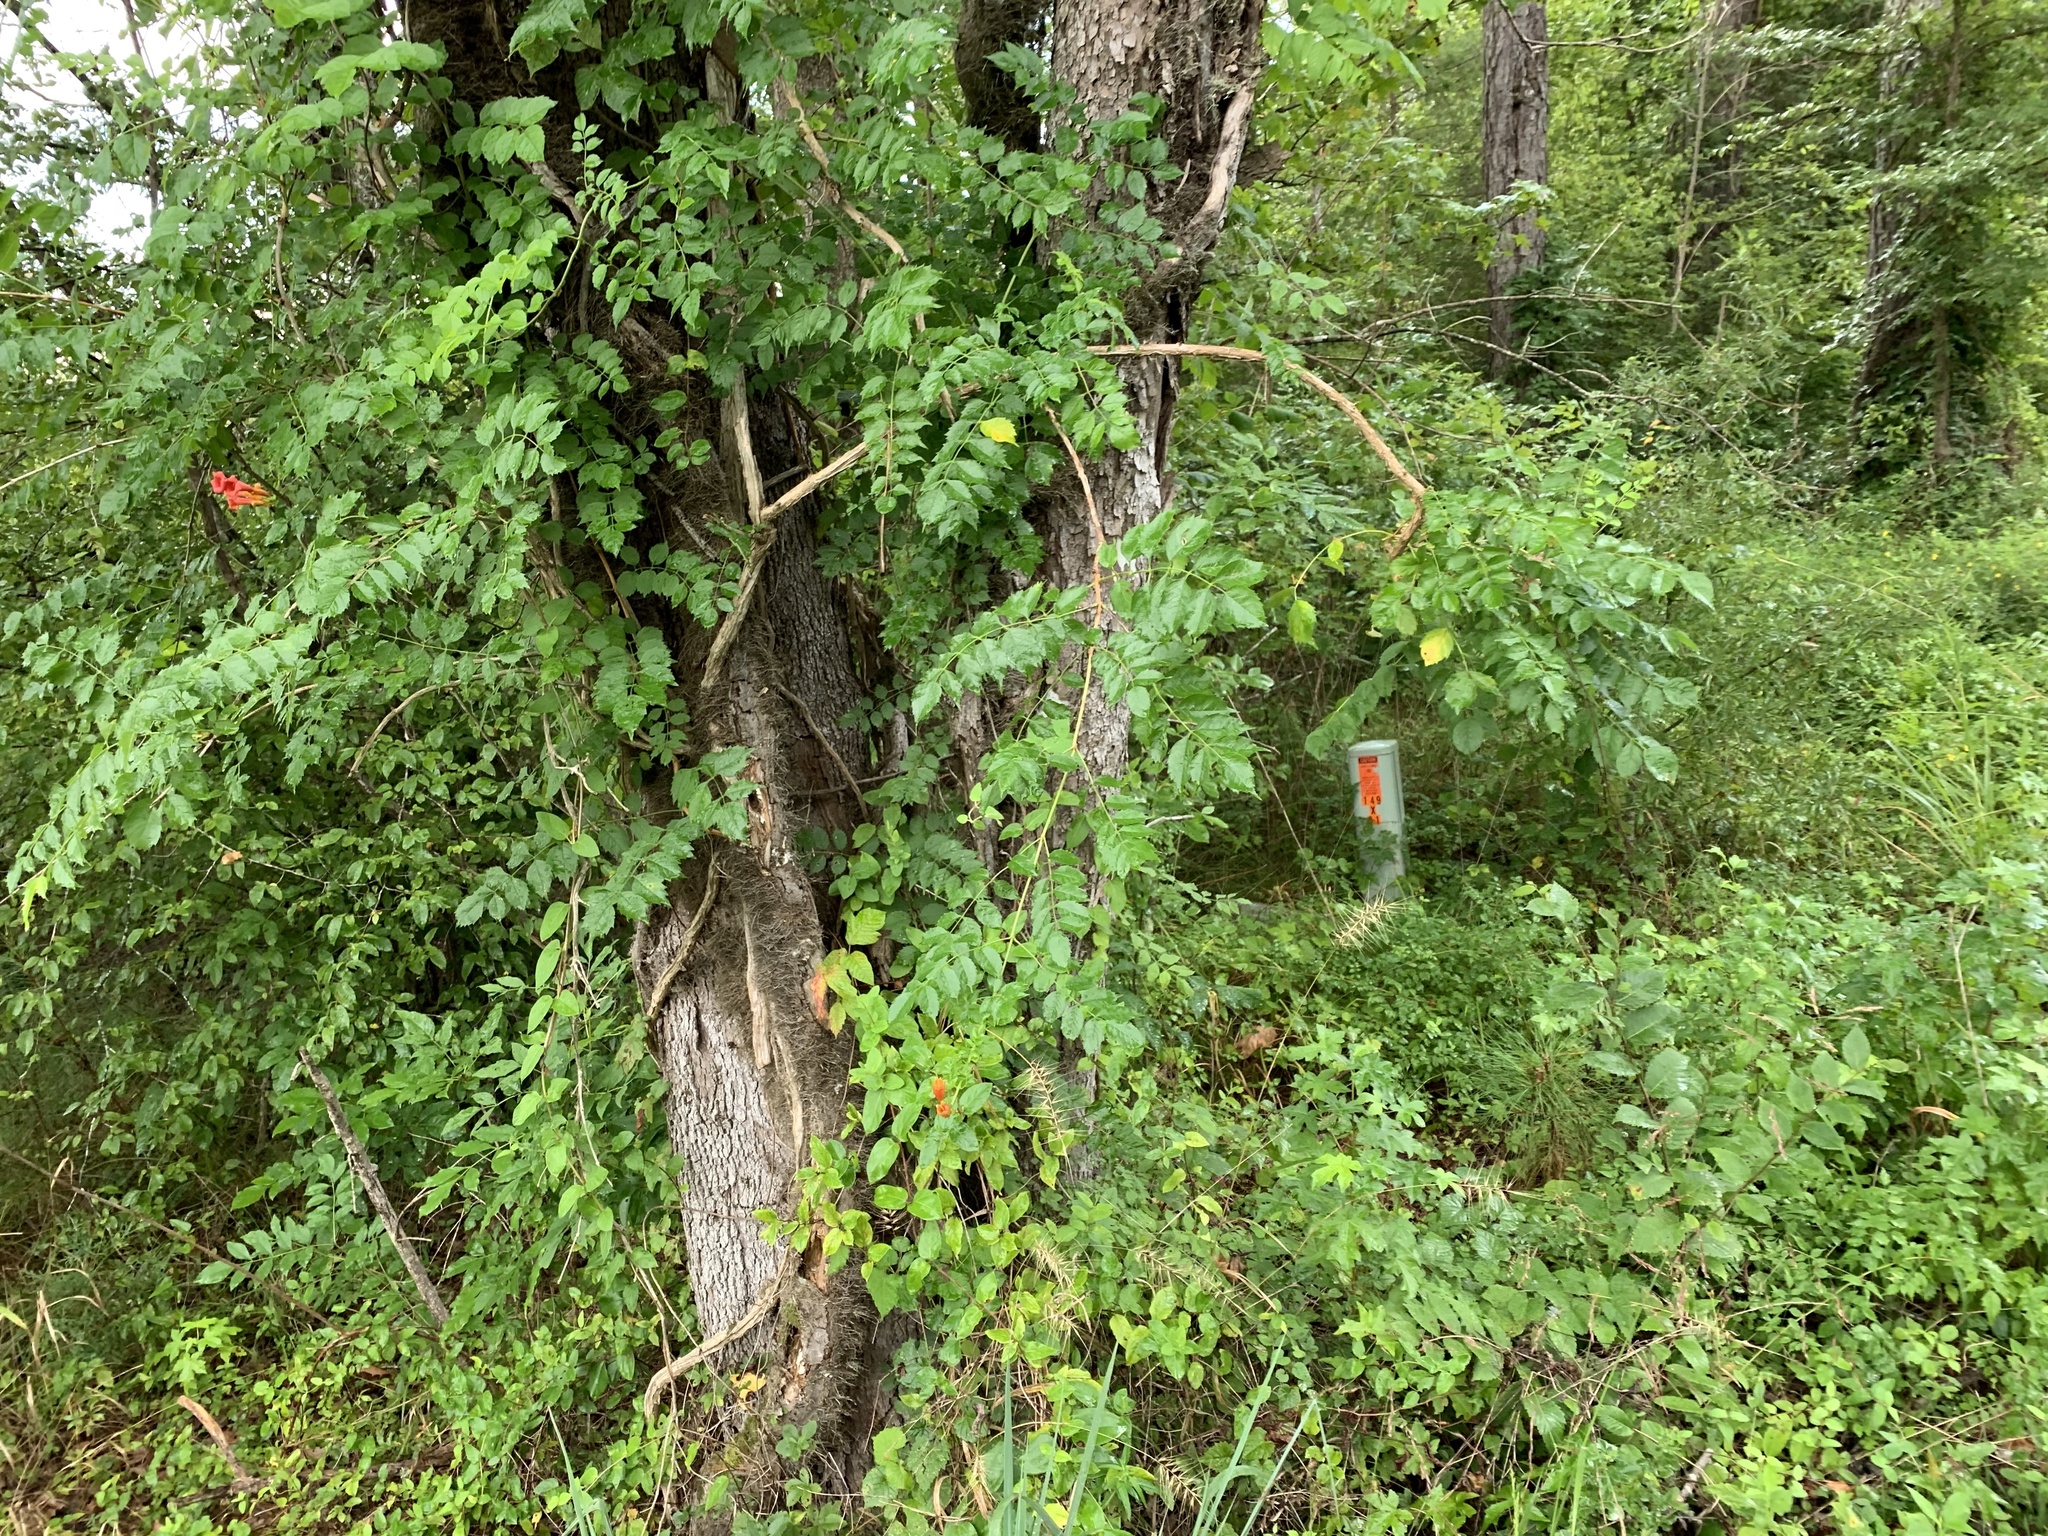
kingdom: Plantae
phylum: Tracheophyta
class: Magnoliopsida
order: Lamiales
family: Bignoniaceae
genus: Campsis
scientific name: Campsis radicans
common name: Trumpet-creeper
